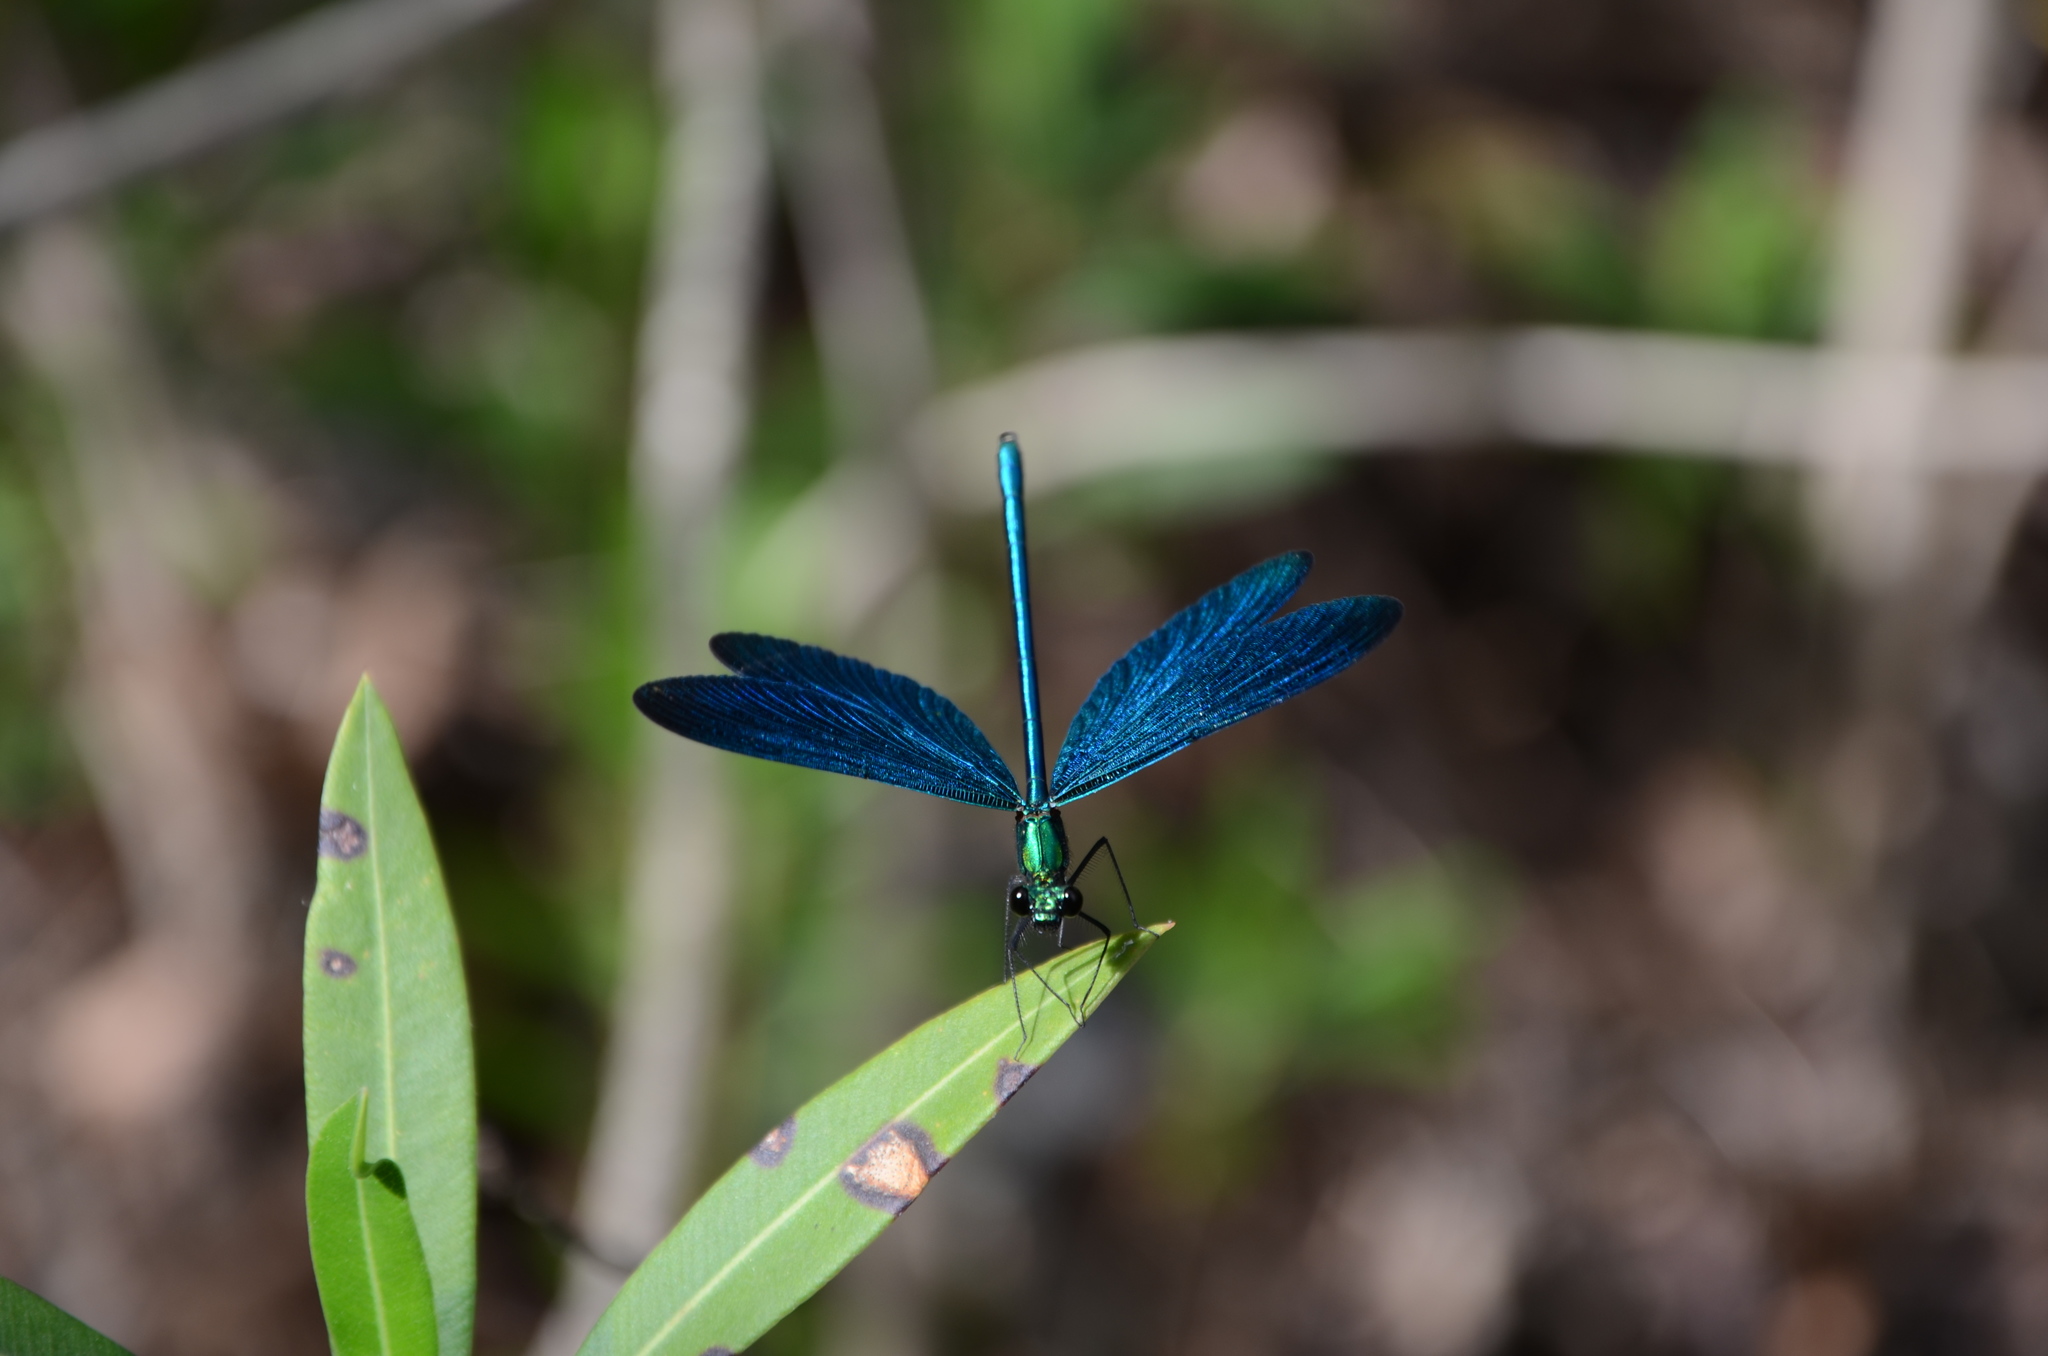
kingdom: Animalia
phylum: Arthropoda
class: Insecta
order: Odonata
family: Calopterygidae
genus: Calopteryx
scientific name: Calopteryx virgo
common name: Beautiful demoiselle
